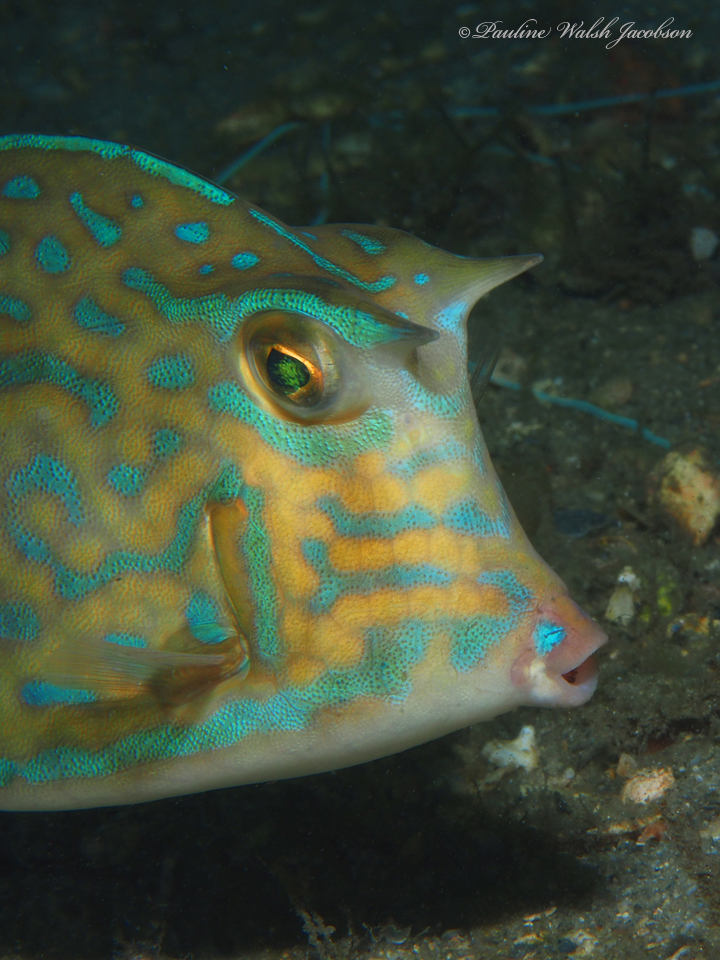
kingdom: Animalia
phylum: Chordata
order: Tetraodontiformes
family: Ostraciidae
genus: Acanthostracion
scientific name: Acanthostracion quadricornis
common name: Scrawled cowfish
